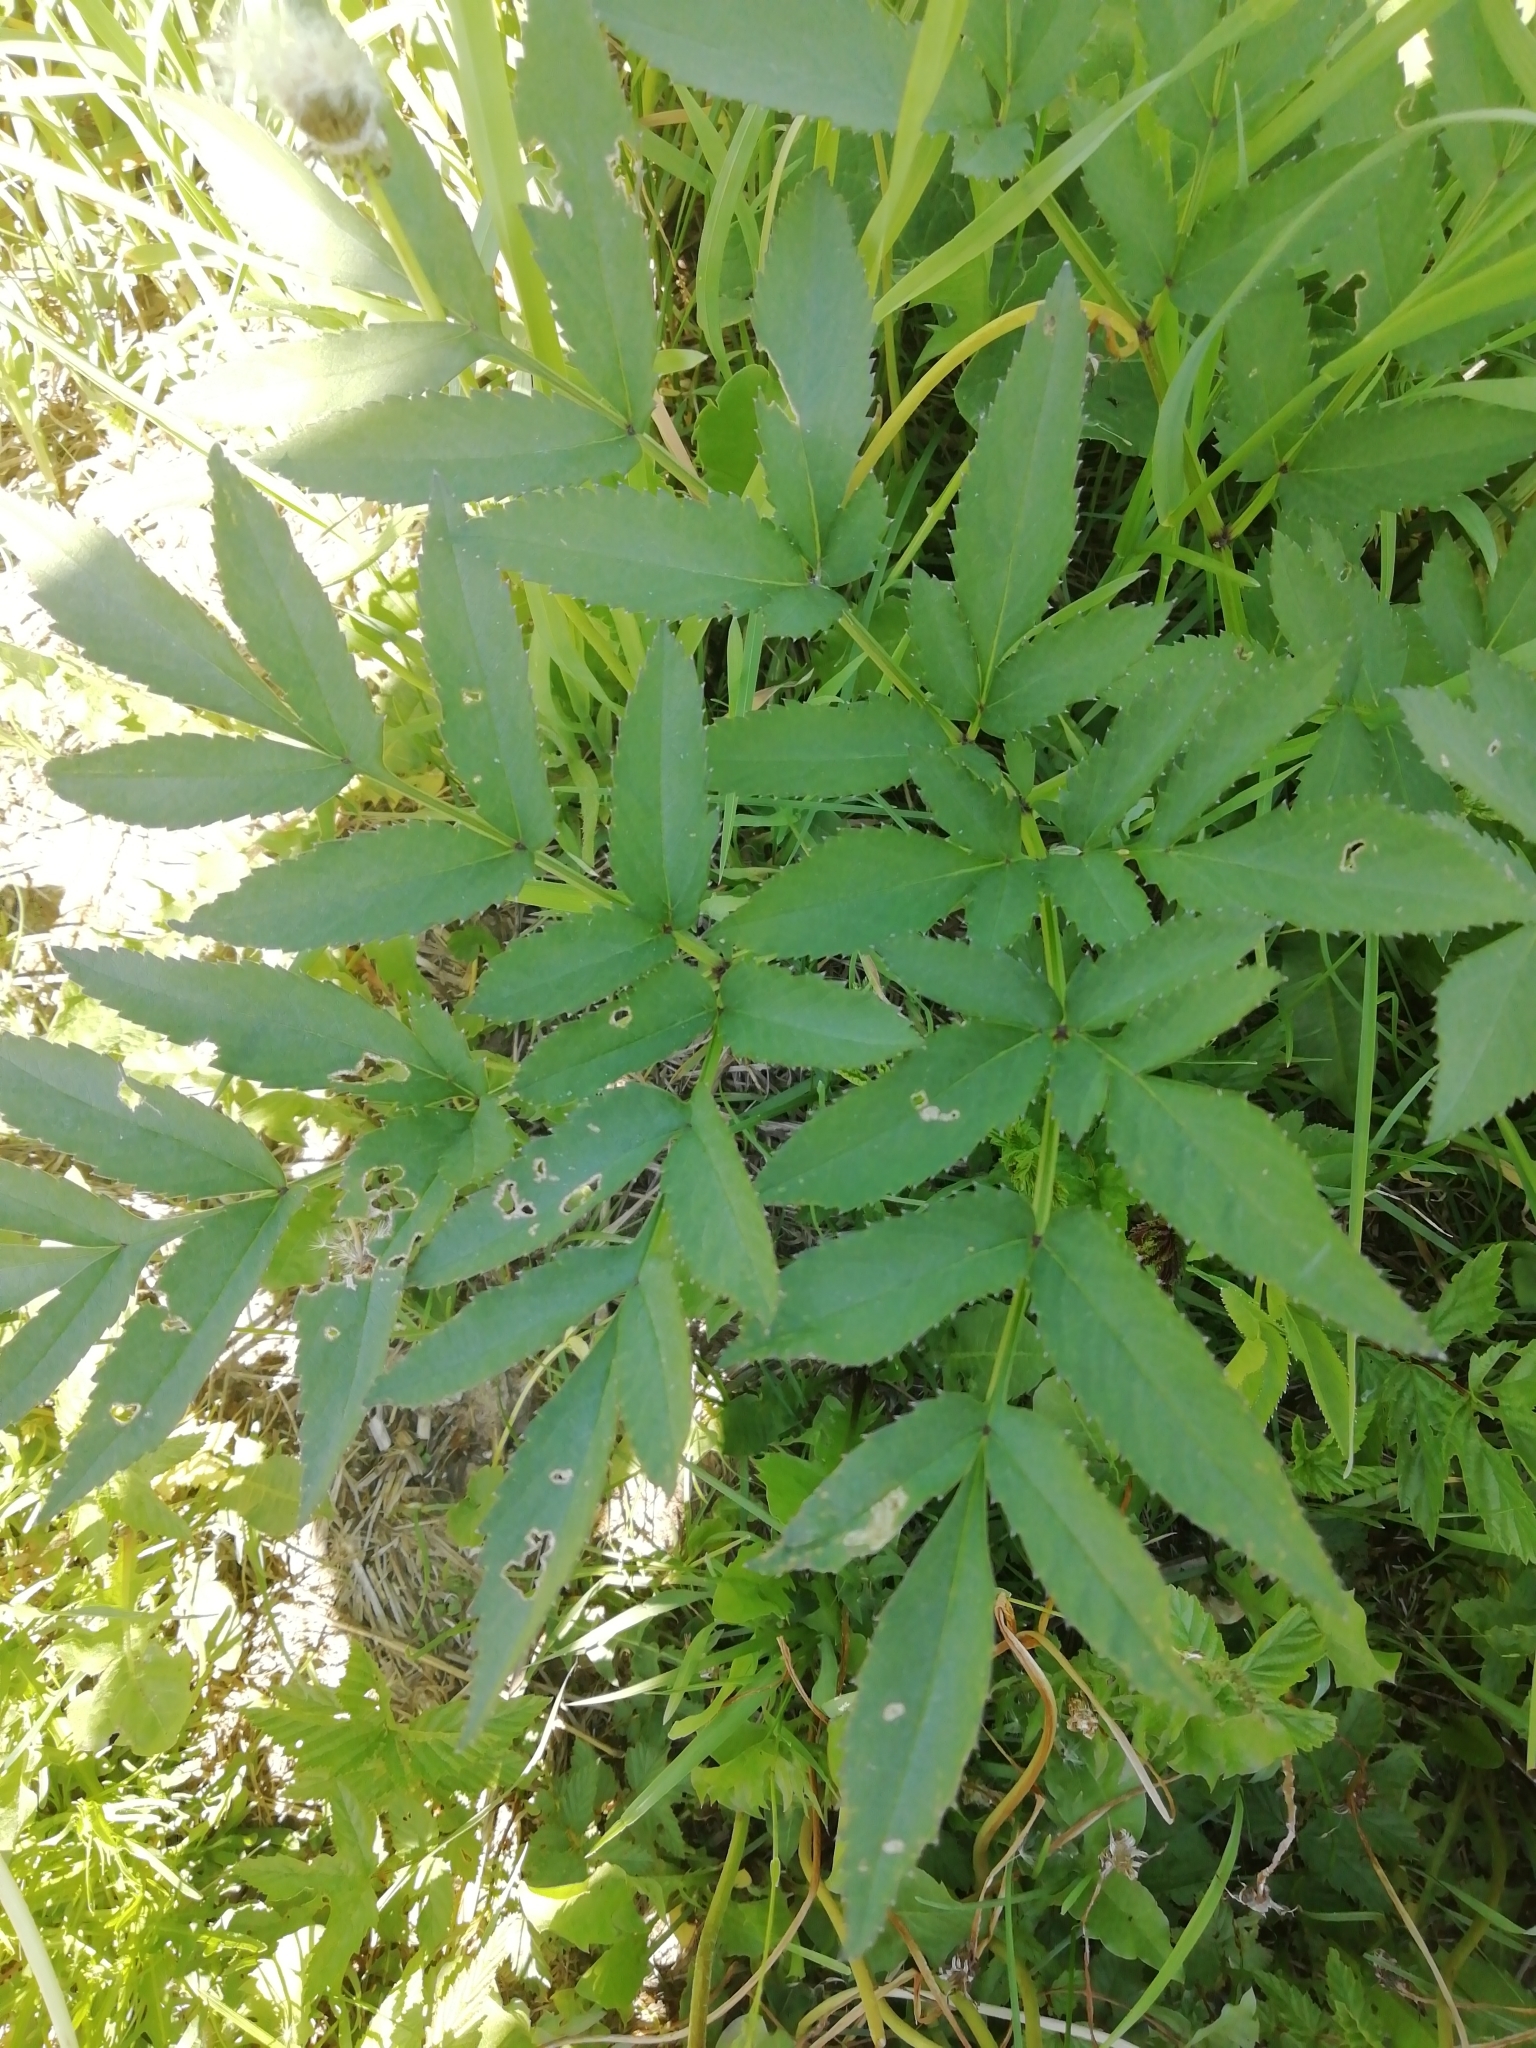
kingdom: Plantae
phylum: Tracheophyta
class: Magnoliopsida
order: Apiales
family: Apiaceae
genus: Angelica
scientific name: Angelica sylvestris
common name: Wild angelica
